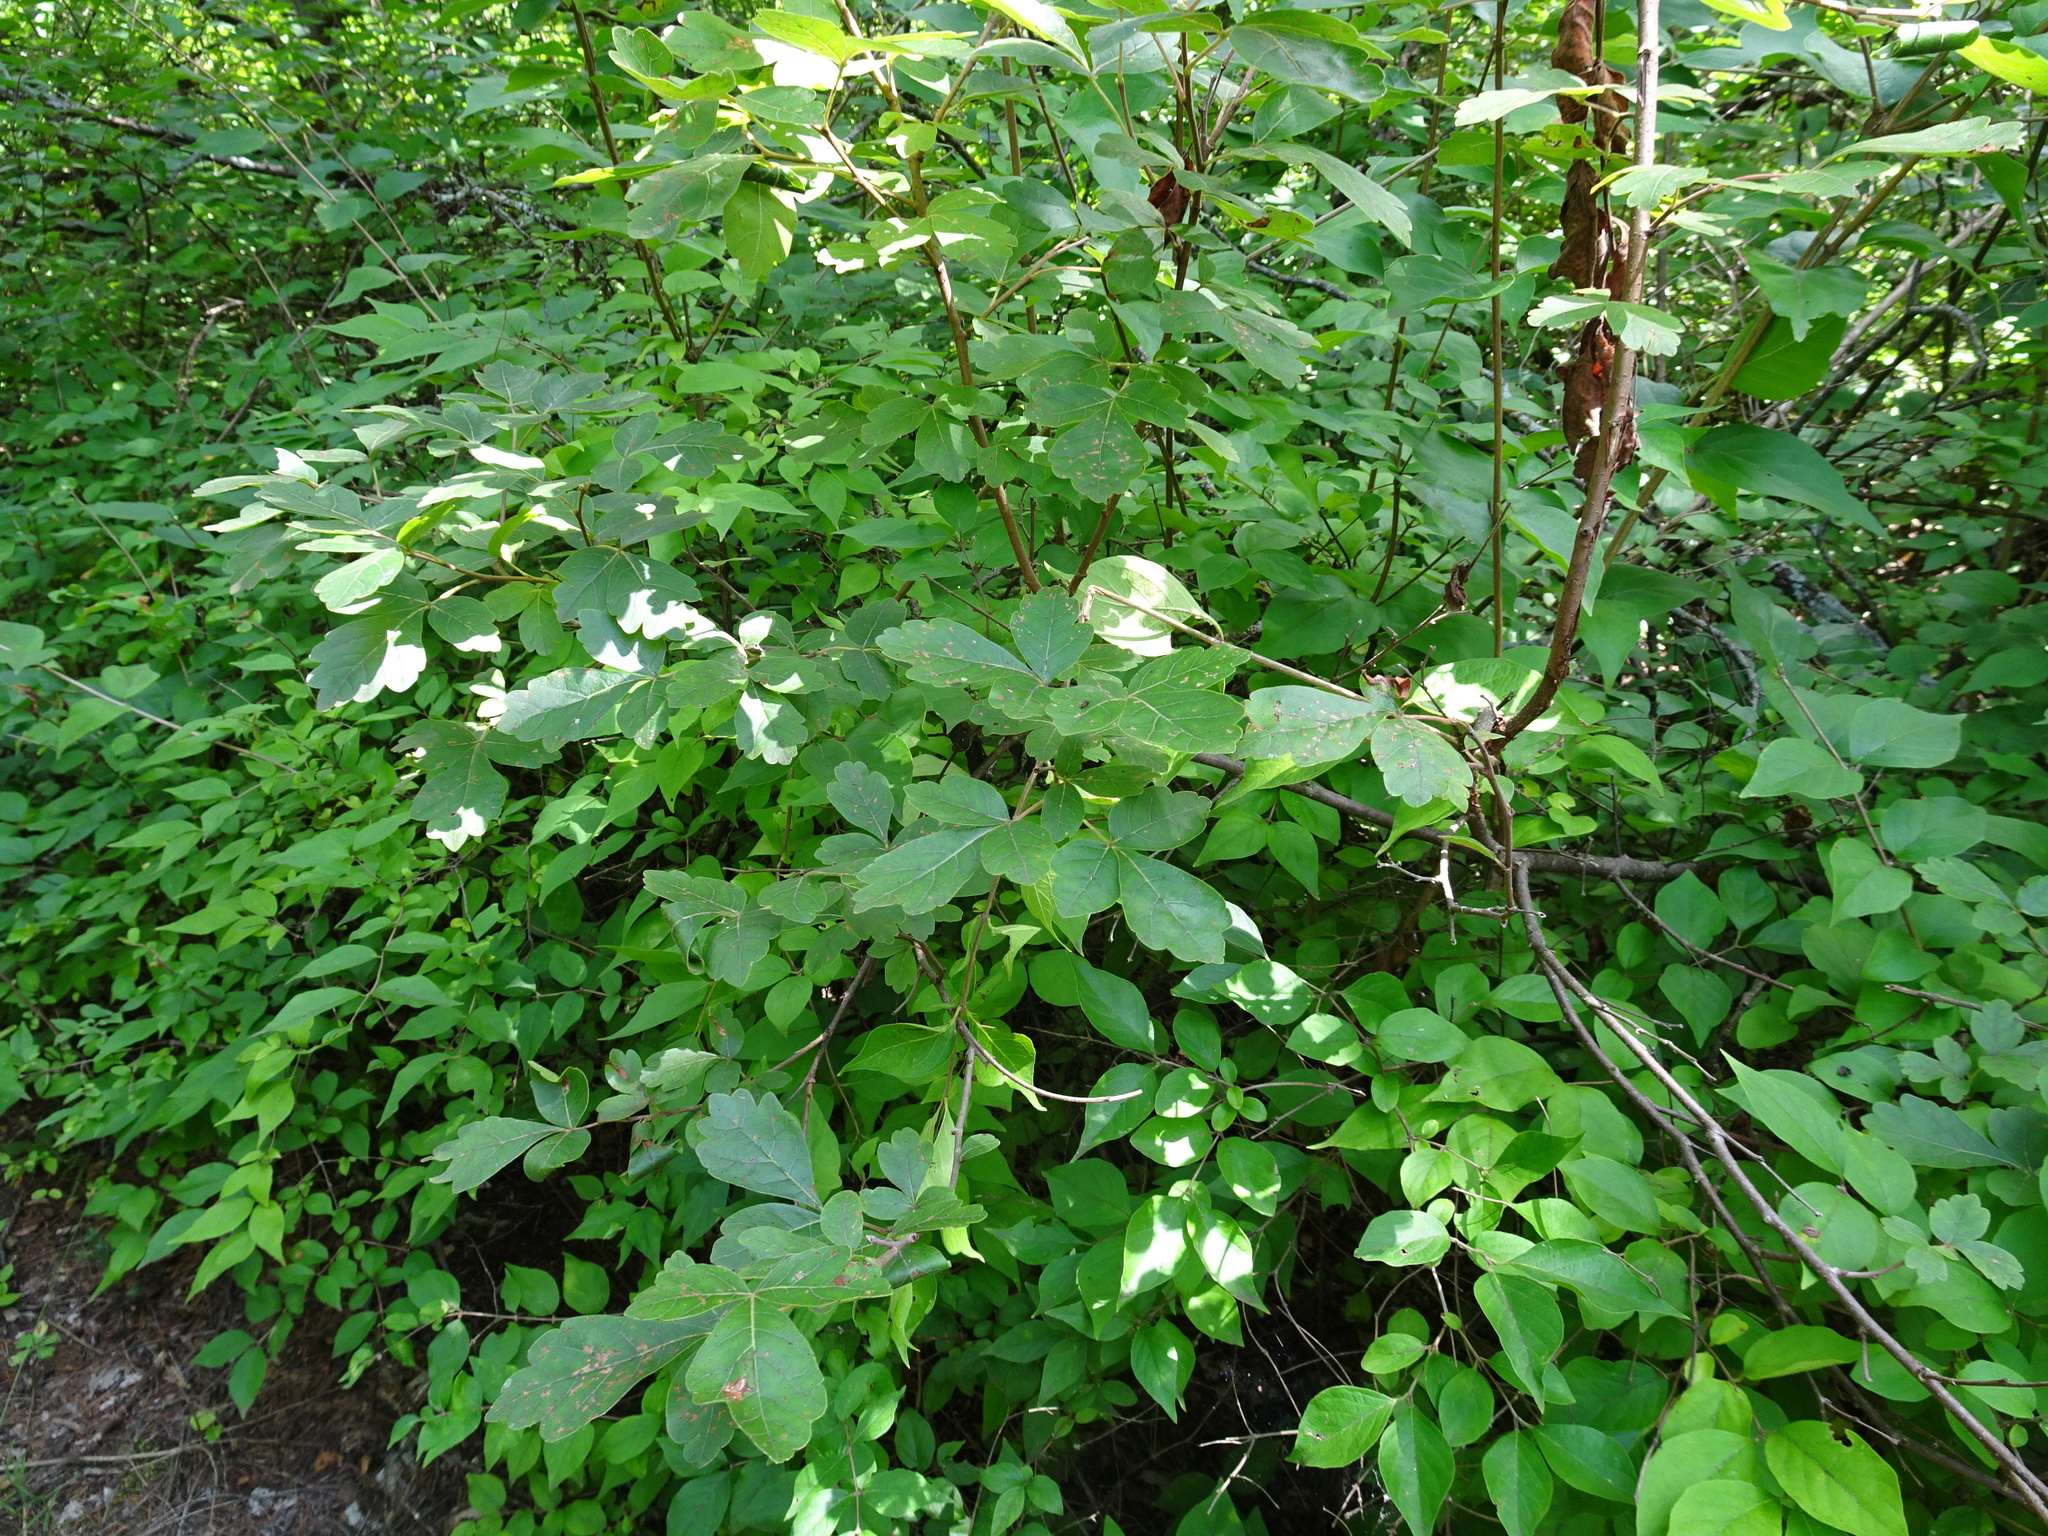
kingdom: Plantae
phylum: Tracheophyta
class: Magnoliopsida
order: Sapindales
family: Anacardiaceae
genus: Rhus
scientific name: Rhus aromatica
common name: Aromatic sumac
